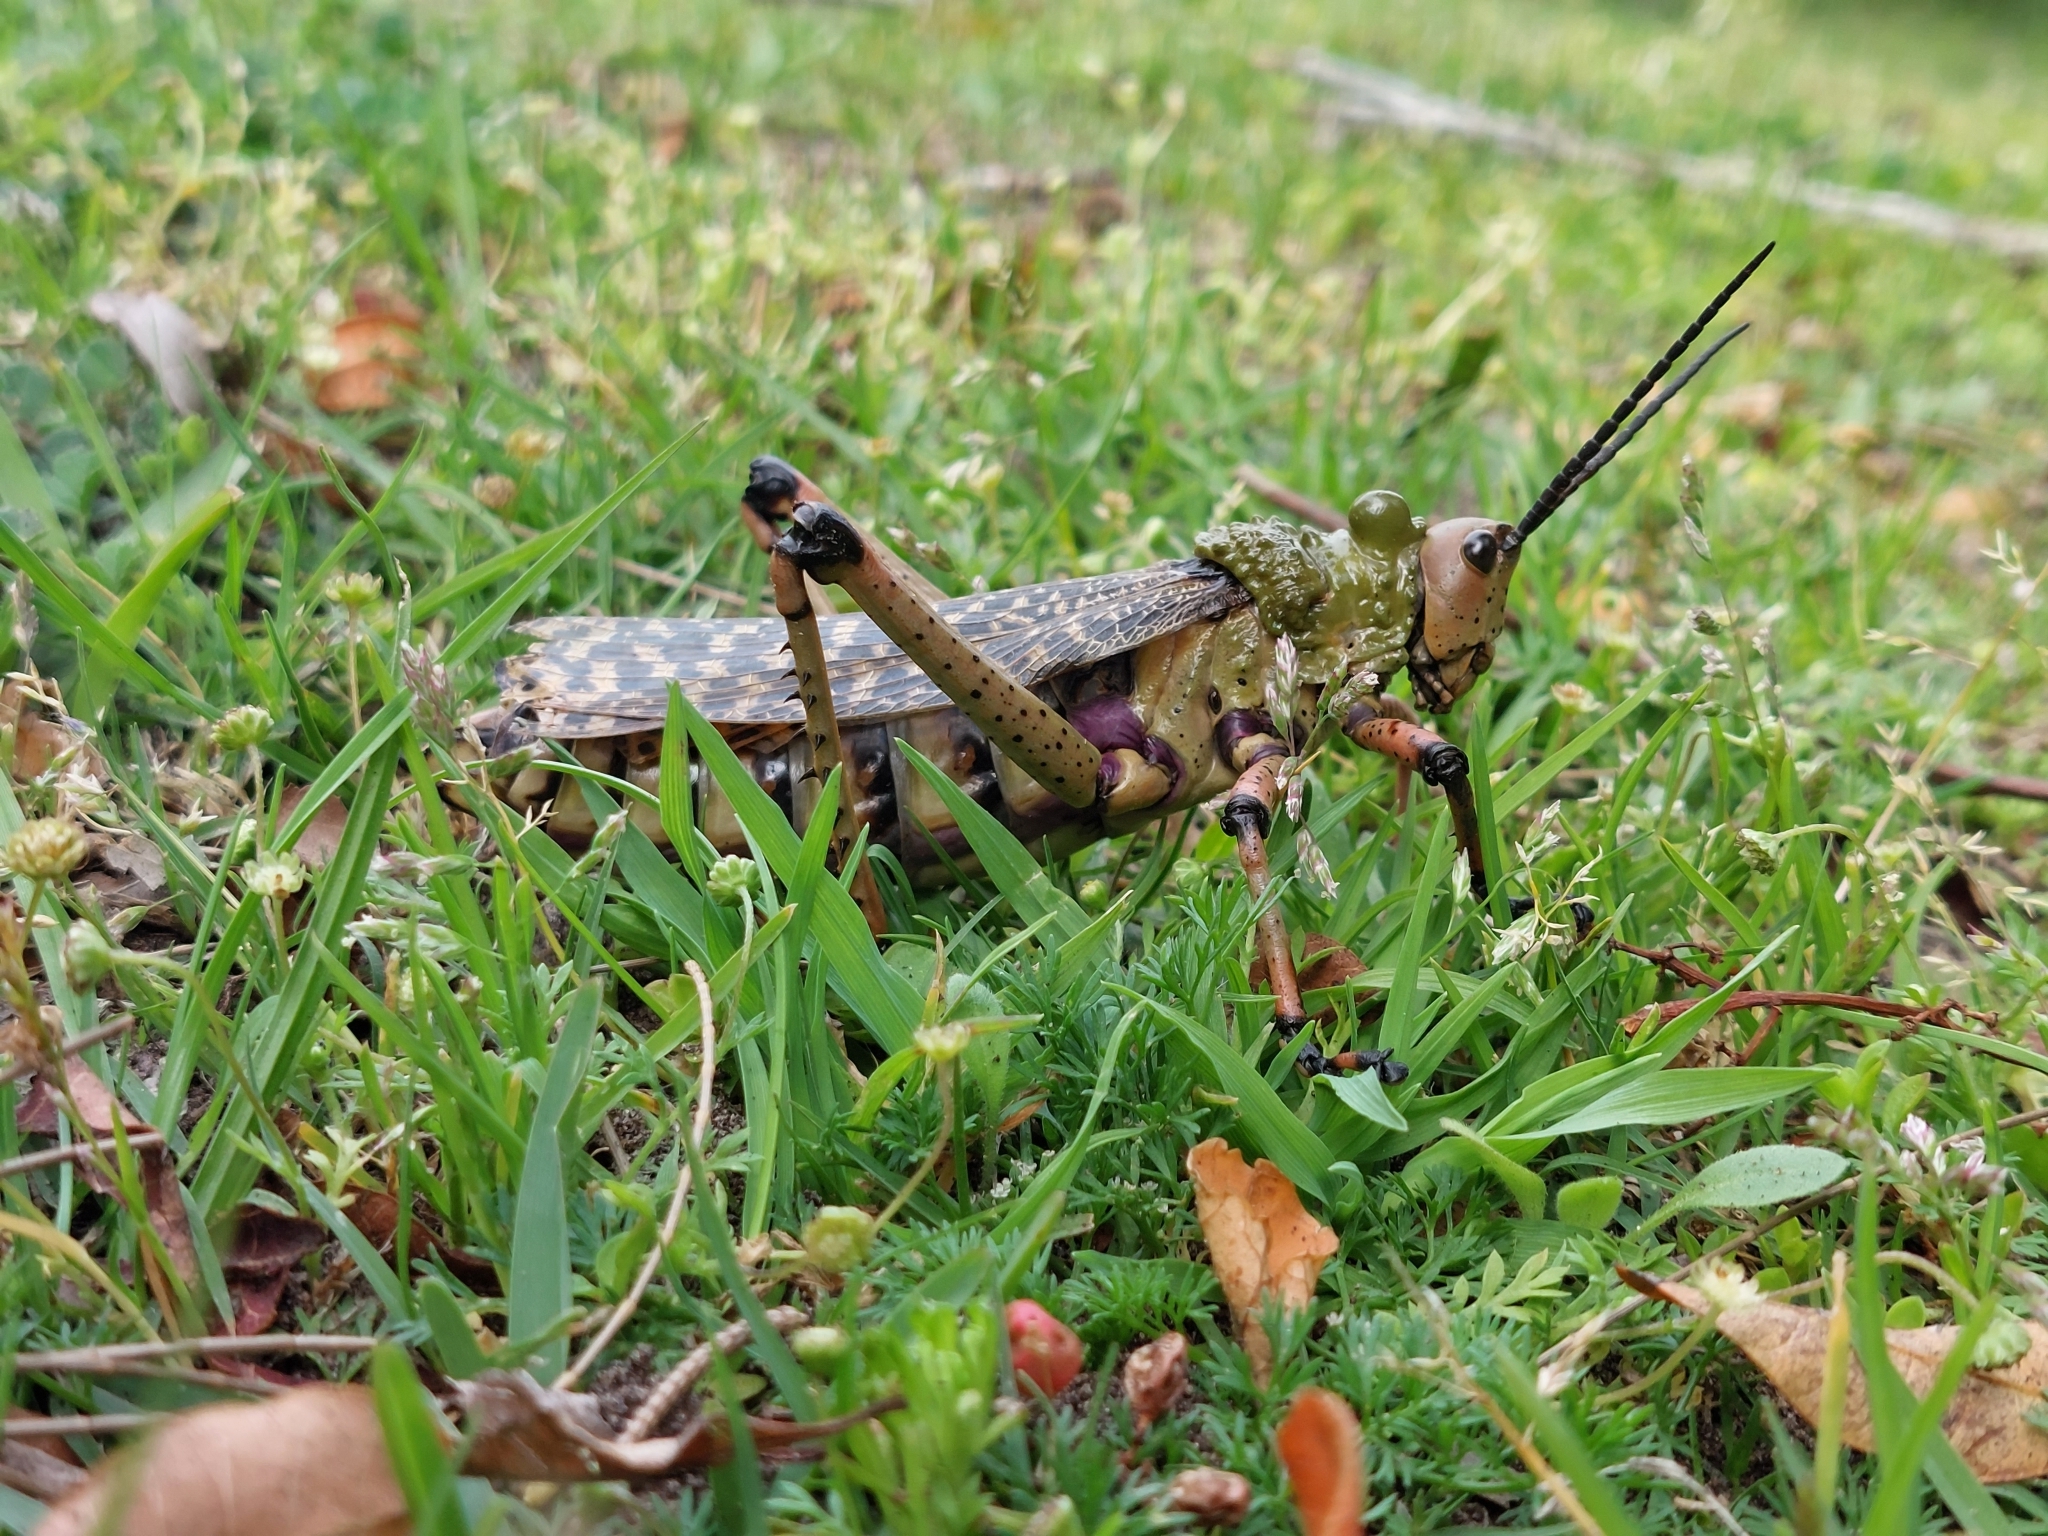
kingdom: Animalia
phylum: Arthropoda
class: Insecta
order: Orthoptera
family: Pyrgomorphidae
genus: Phymateus
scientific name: Phymateus leprosus
